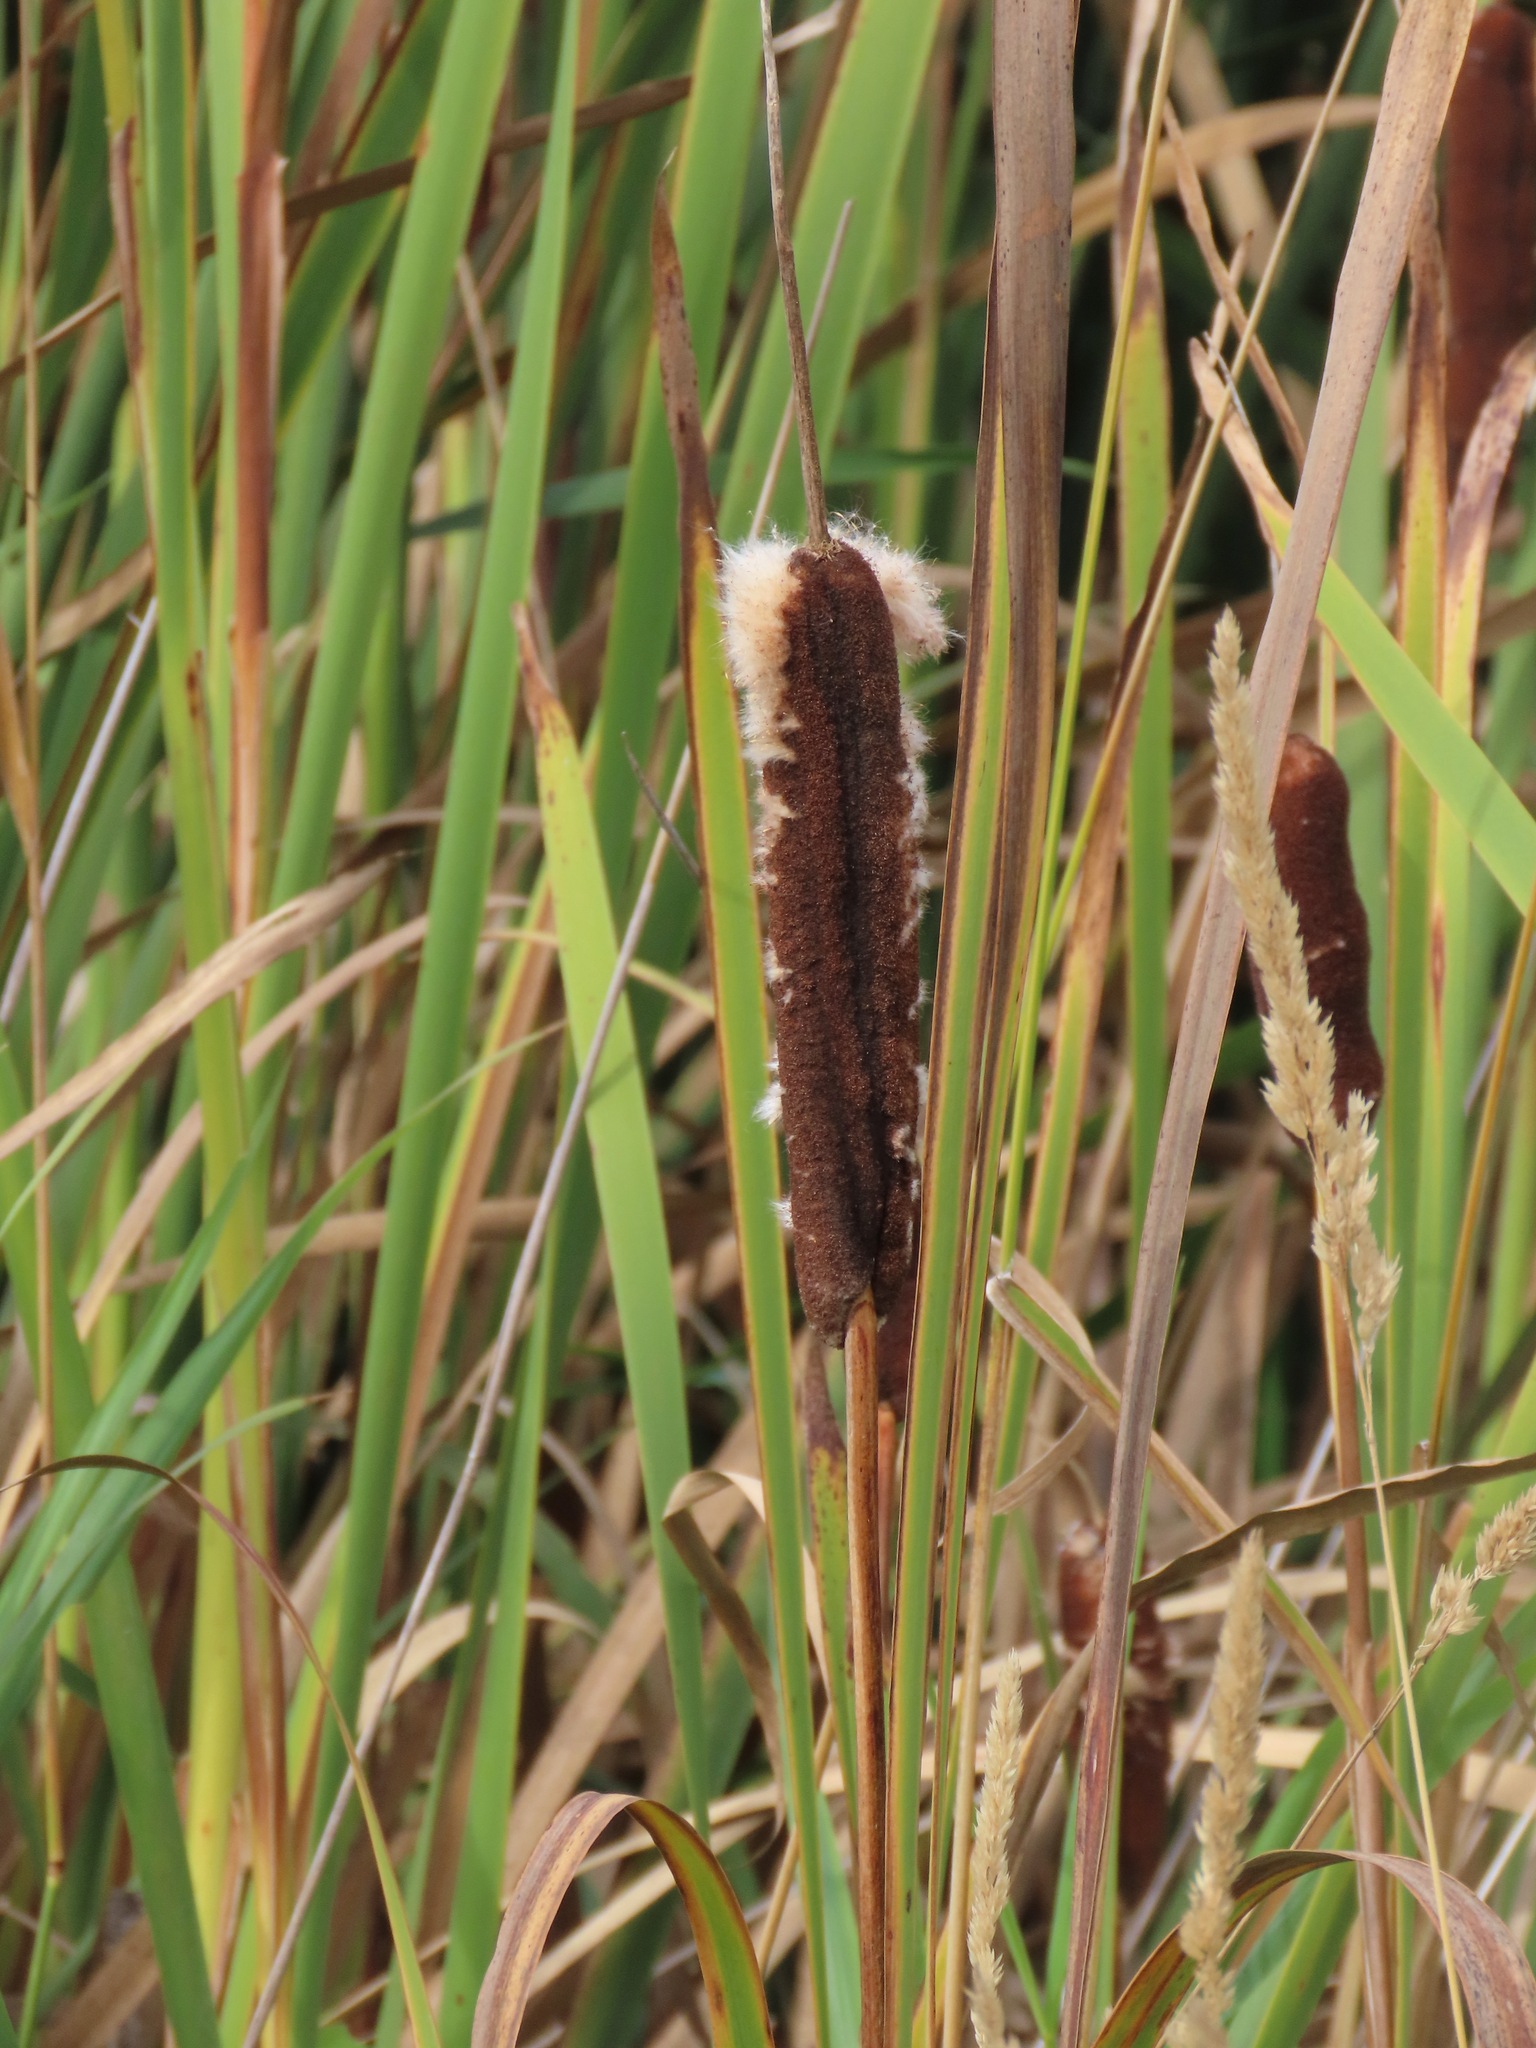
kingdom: Plantae
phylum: Tracheophyta
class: Liliopsida
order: Poales
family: Typhaceae
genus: Typha
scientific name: Typha latifolia
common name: Broadleaf cattail
